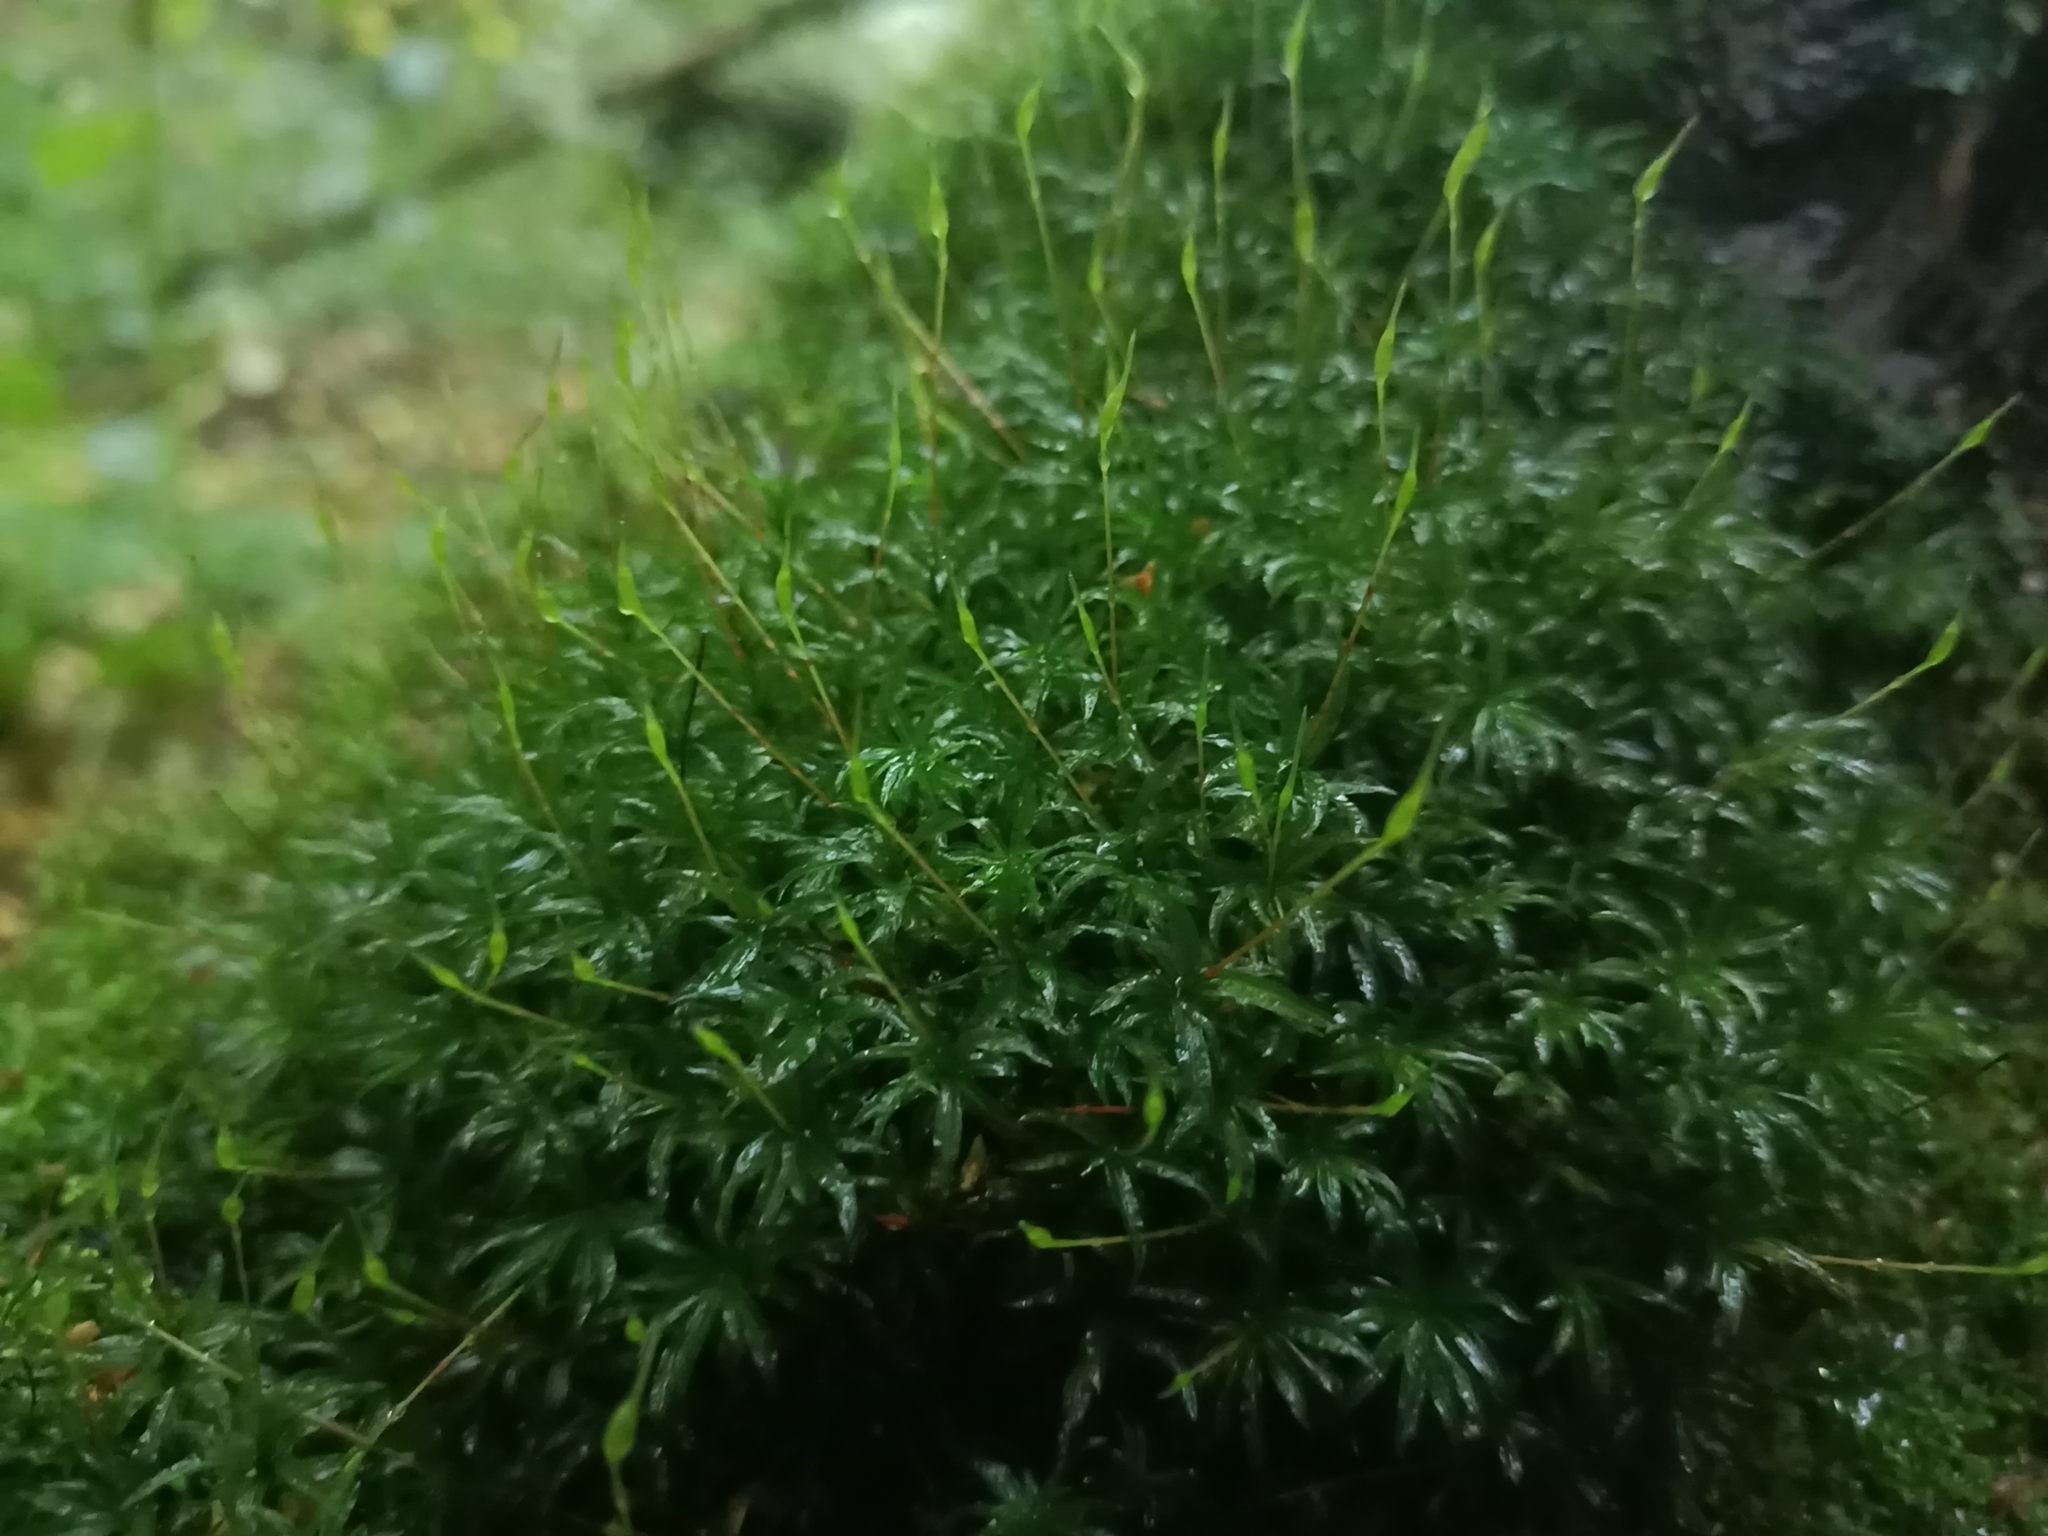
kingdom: Plantae
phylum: Bryophyta
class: Polytrichopsida
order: Polytrichales
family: Polytrichaceae
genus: Atrichum
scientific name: Atrichum undulatum
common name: Common smoothcap
